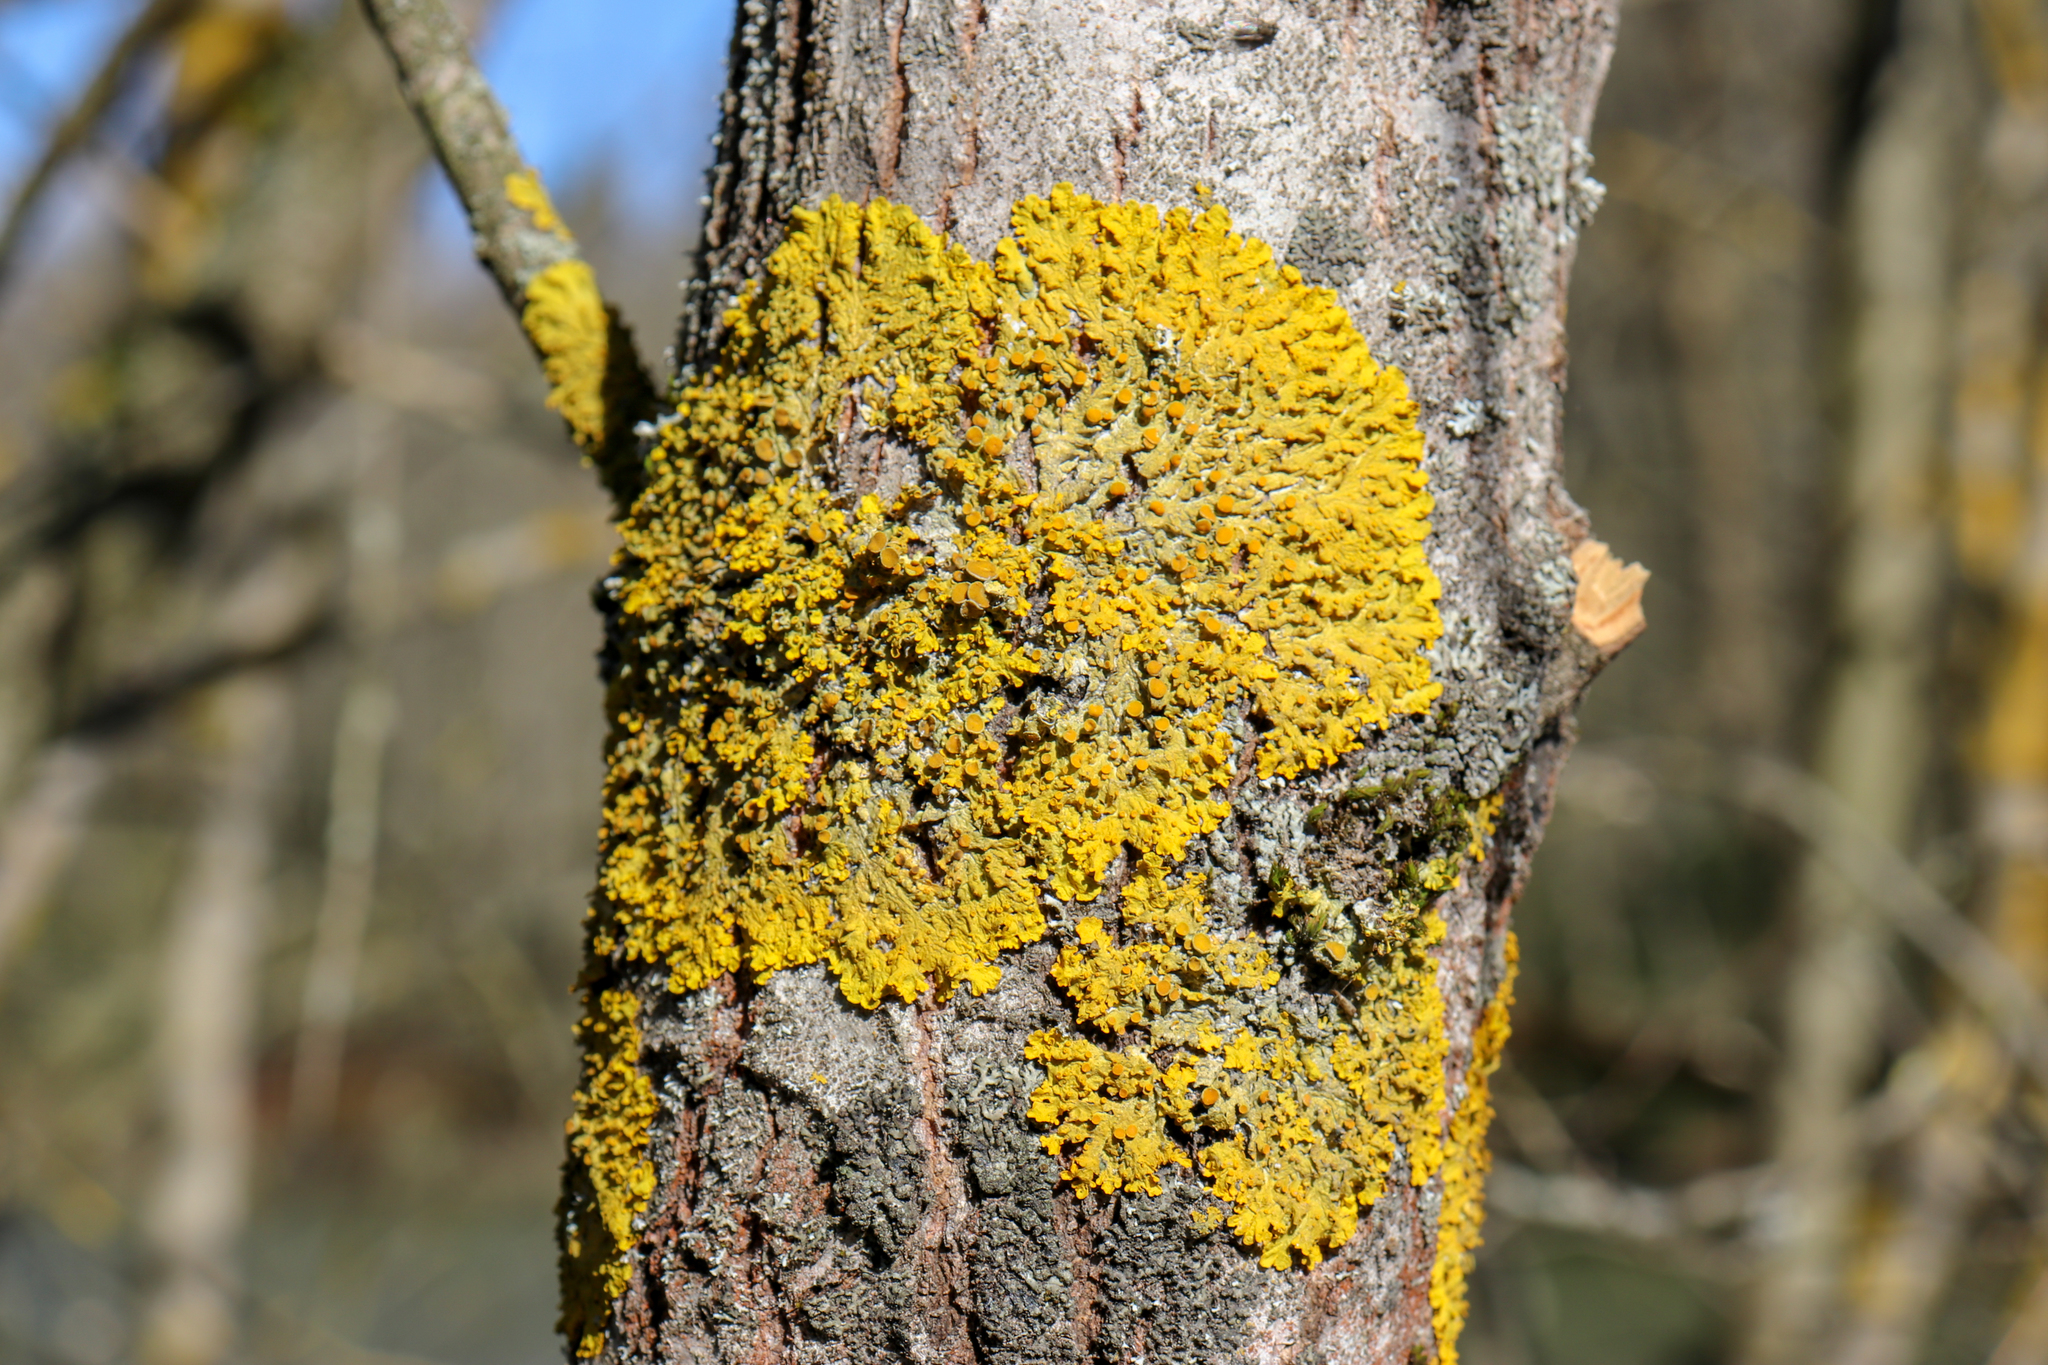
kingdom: Fungi
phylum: Ascomycota
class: Lecanoromycetes
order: Teloschistales
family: Teloschistaceae
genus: Xanthoria
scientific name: Xanthoria parietina
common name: Common orange lichen
